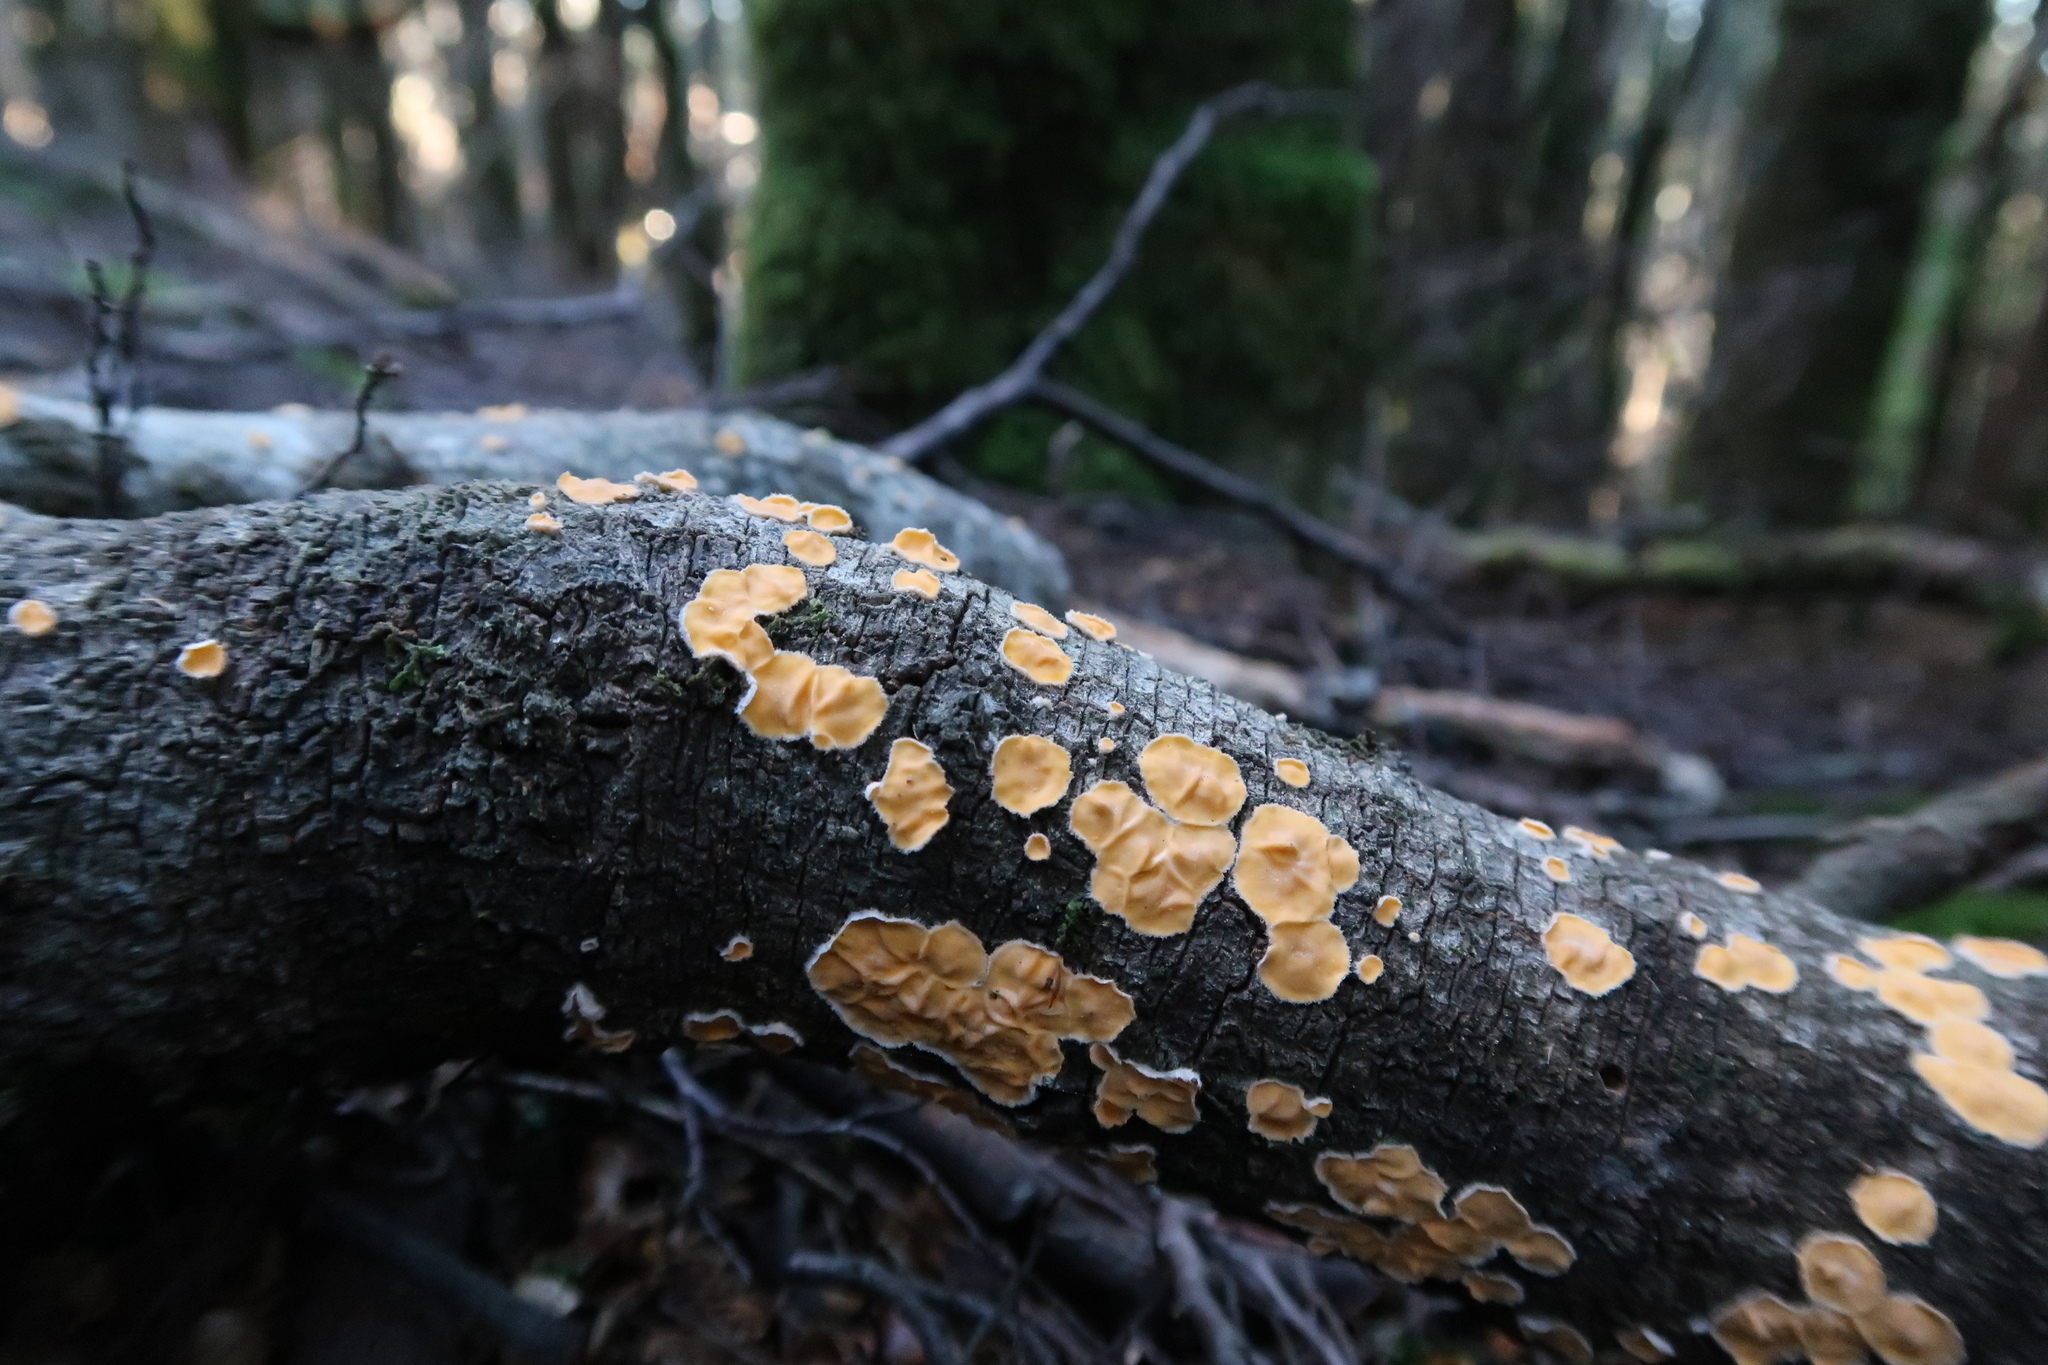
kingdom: Fungi
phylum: Basidiomycota
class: Agaricomycetes
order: Russulales
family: Stereaceae
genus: Stereodiscus
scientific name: Stereodiscus limonisporus
